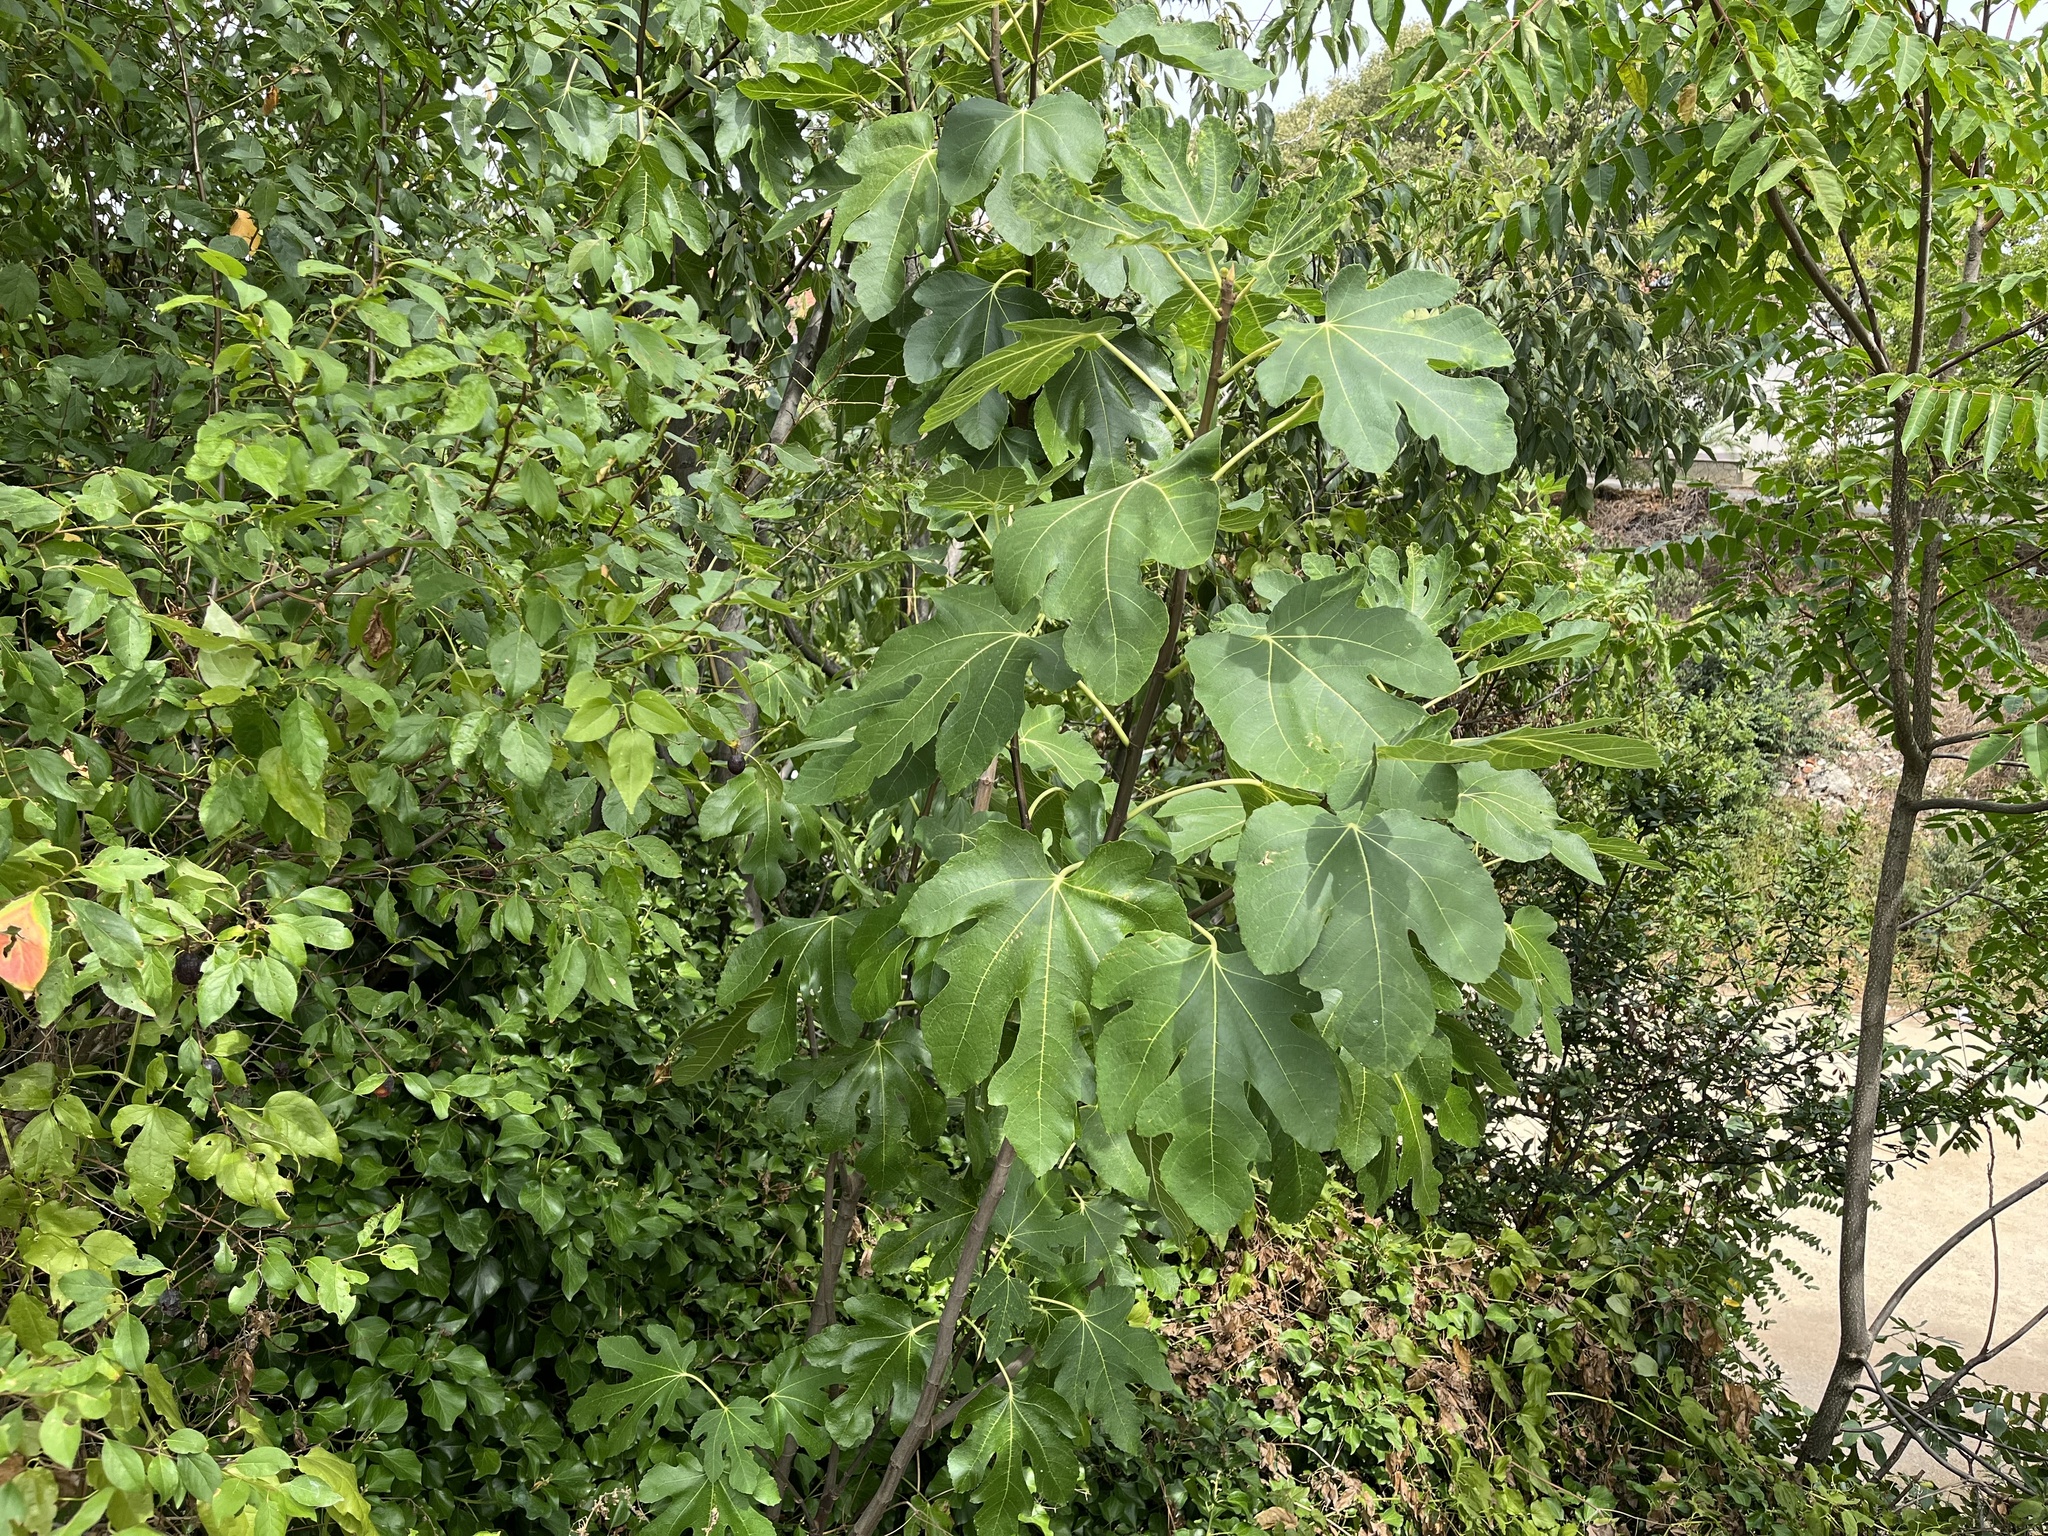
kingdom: Plantae
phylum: Tracheophyta
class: Magnoliopsida
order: Rosales
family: Moraceae
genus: Ficus
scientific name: Ficus carica
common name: Fig
